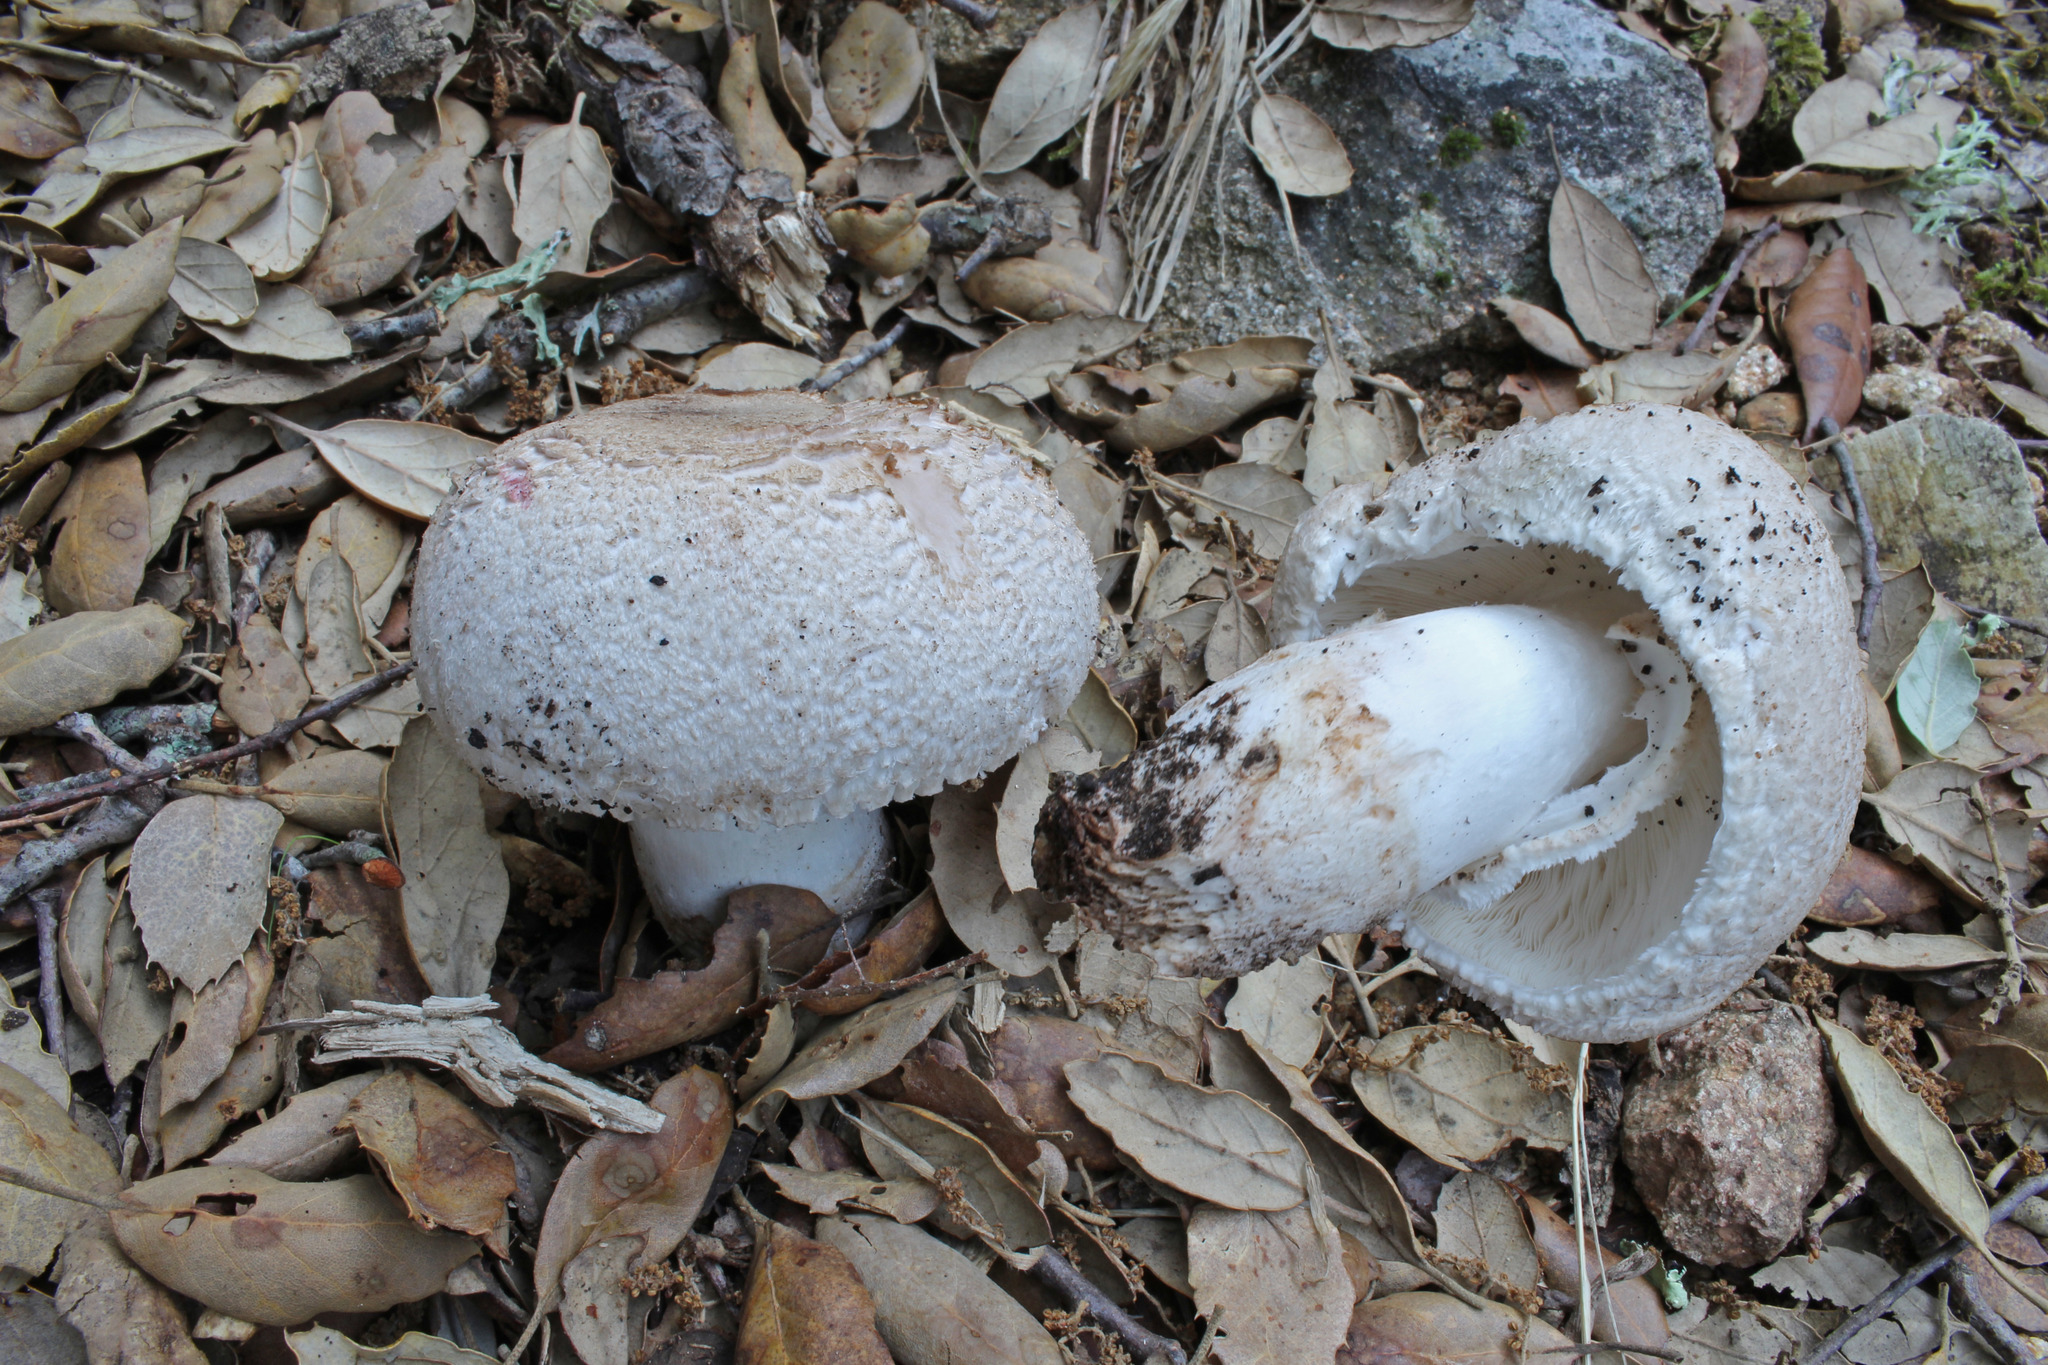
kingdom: Fungi
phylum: Basidiomycota
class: Agaricomycetes
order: Agaricales
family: Agaricaceae
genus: Leucoagaricus
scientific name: Leucoagaricus barssii
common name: Smoky dapperling
